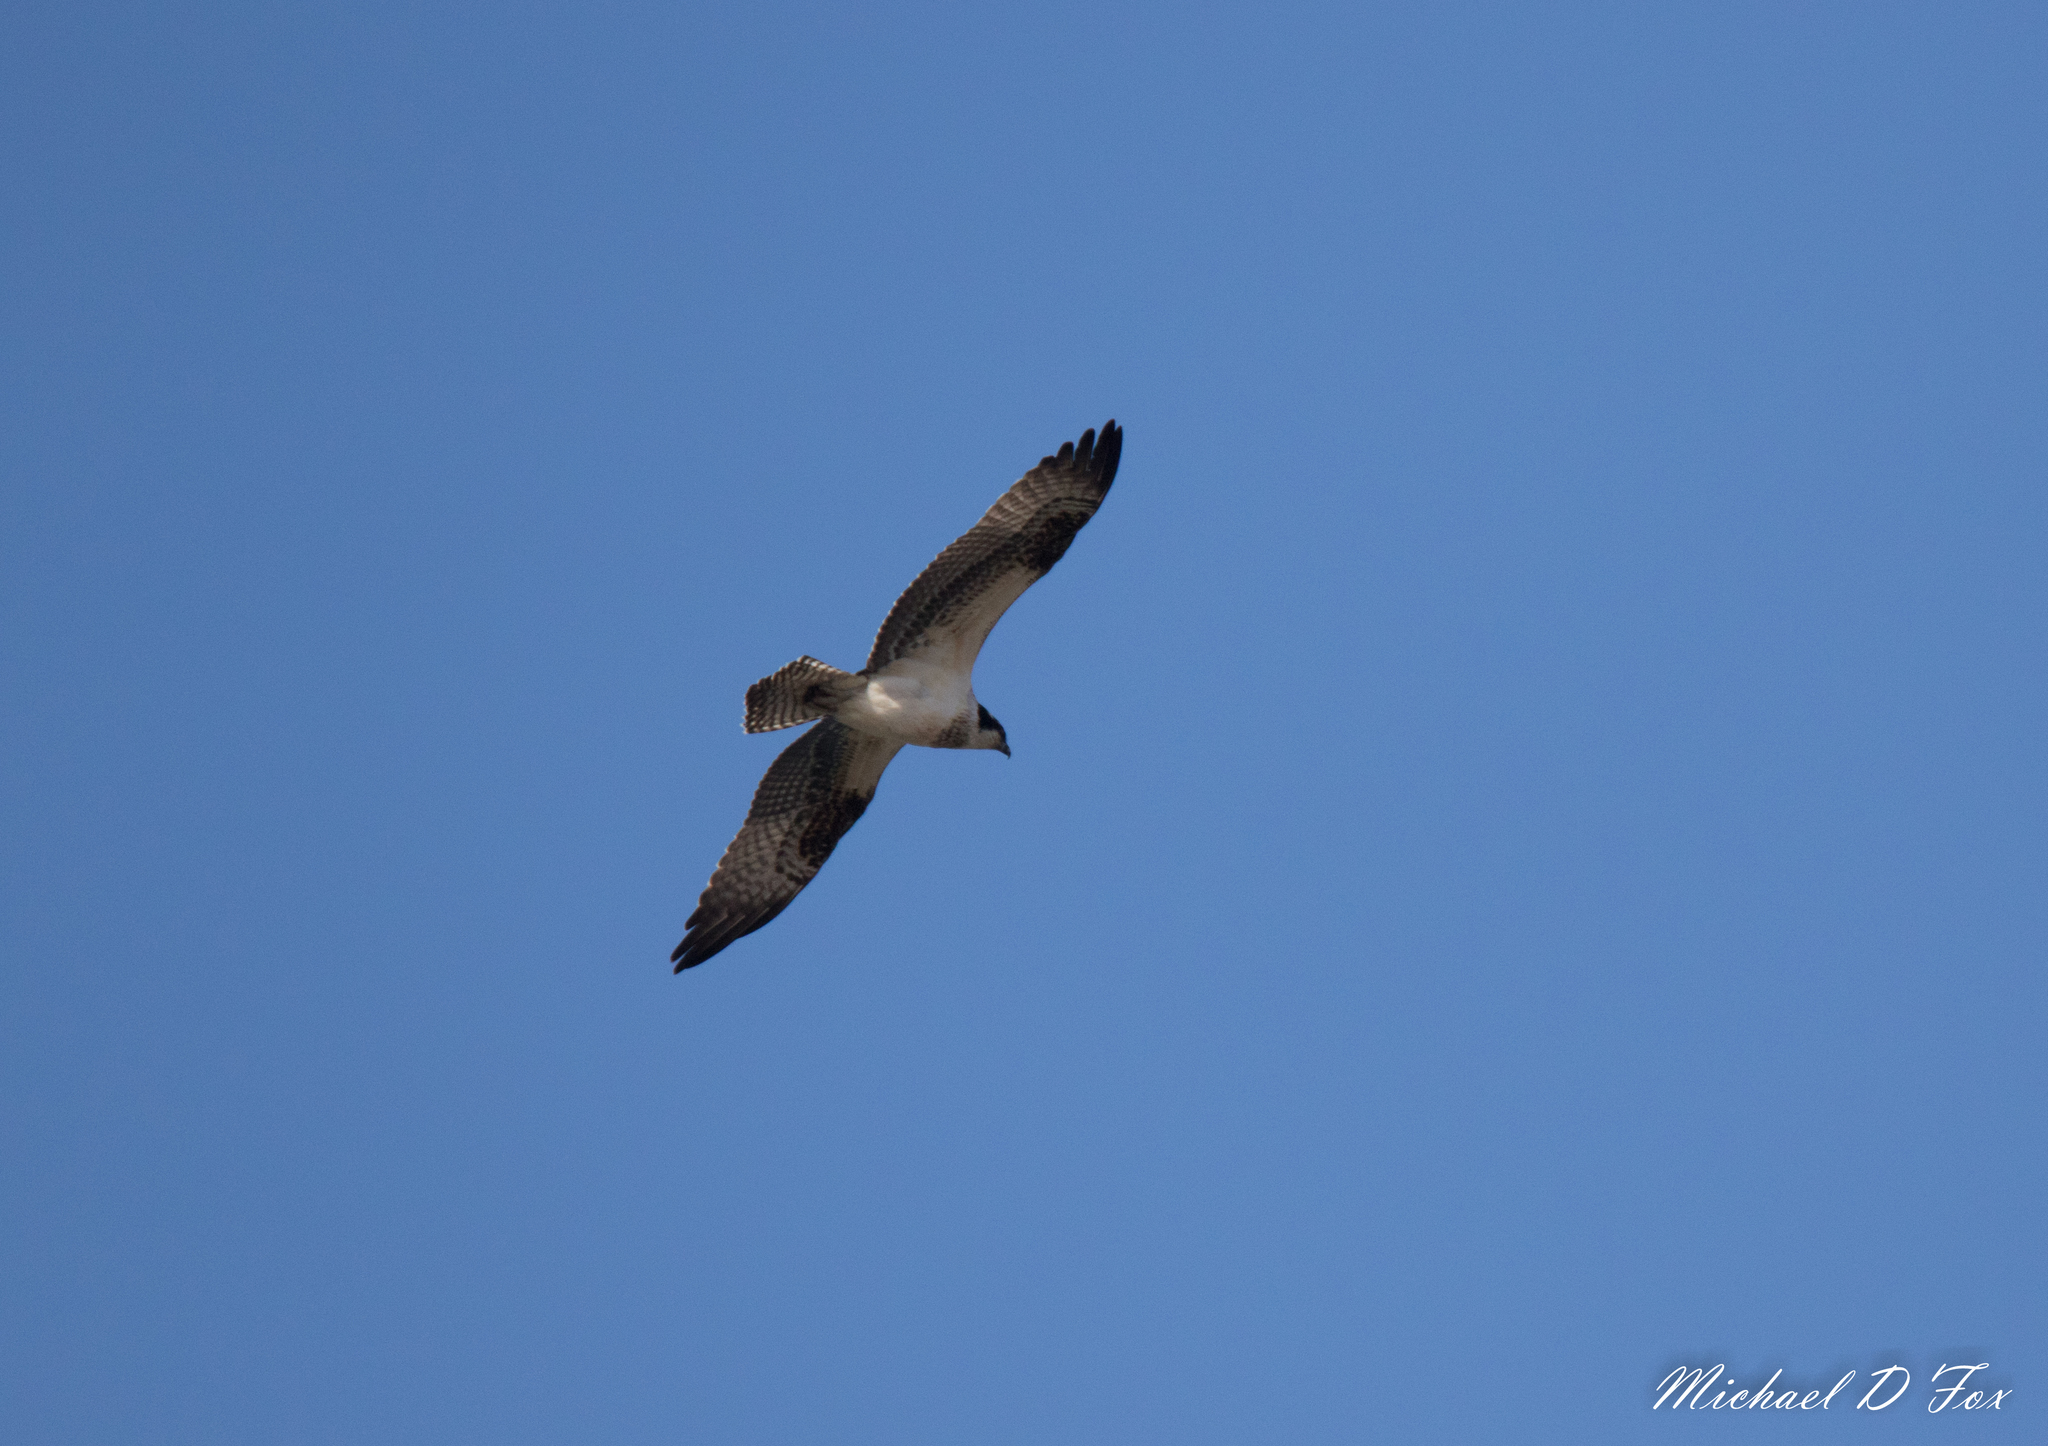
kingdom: Animalia
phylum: Chordata
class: Aves
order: Accipitriformes
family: Pandionidae
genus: Pandion
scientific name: Pandion haliaetus
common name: Osprey
